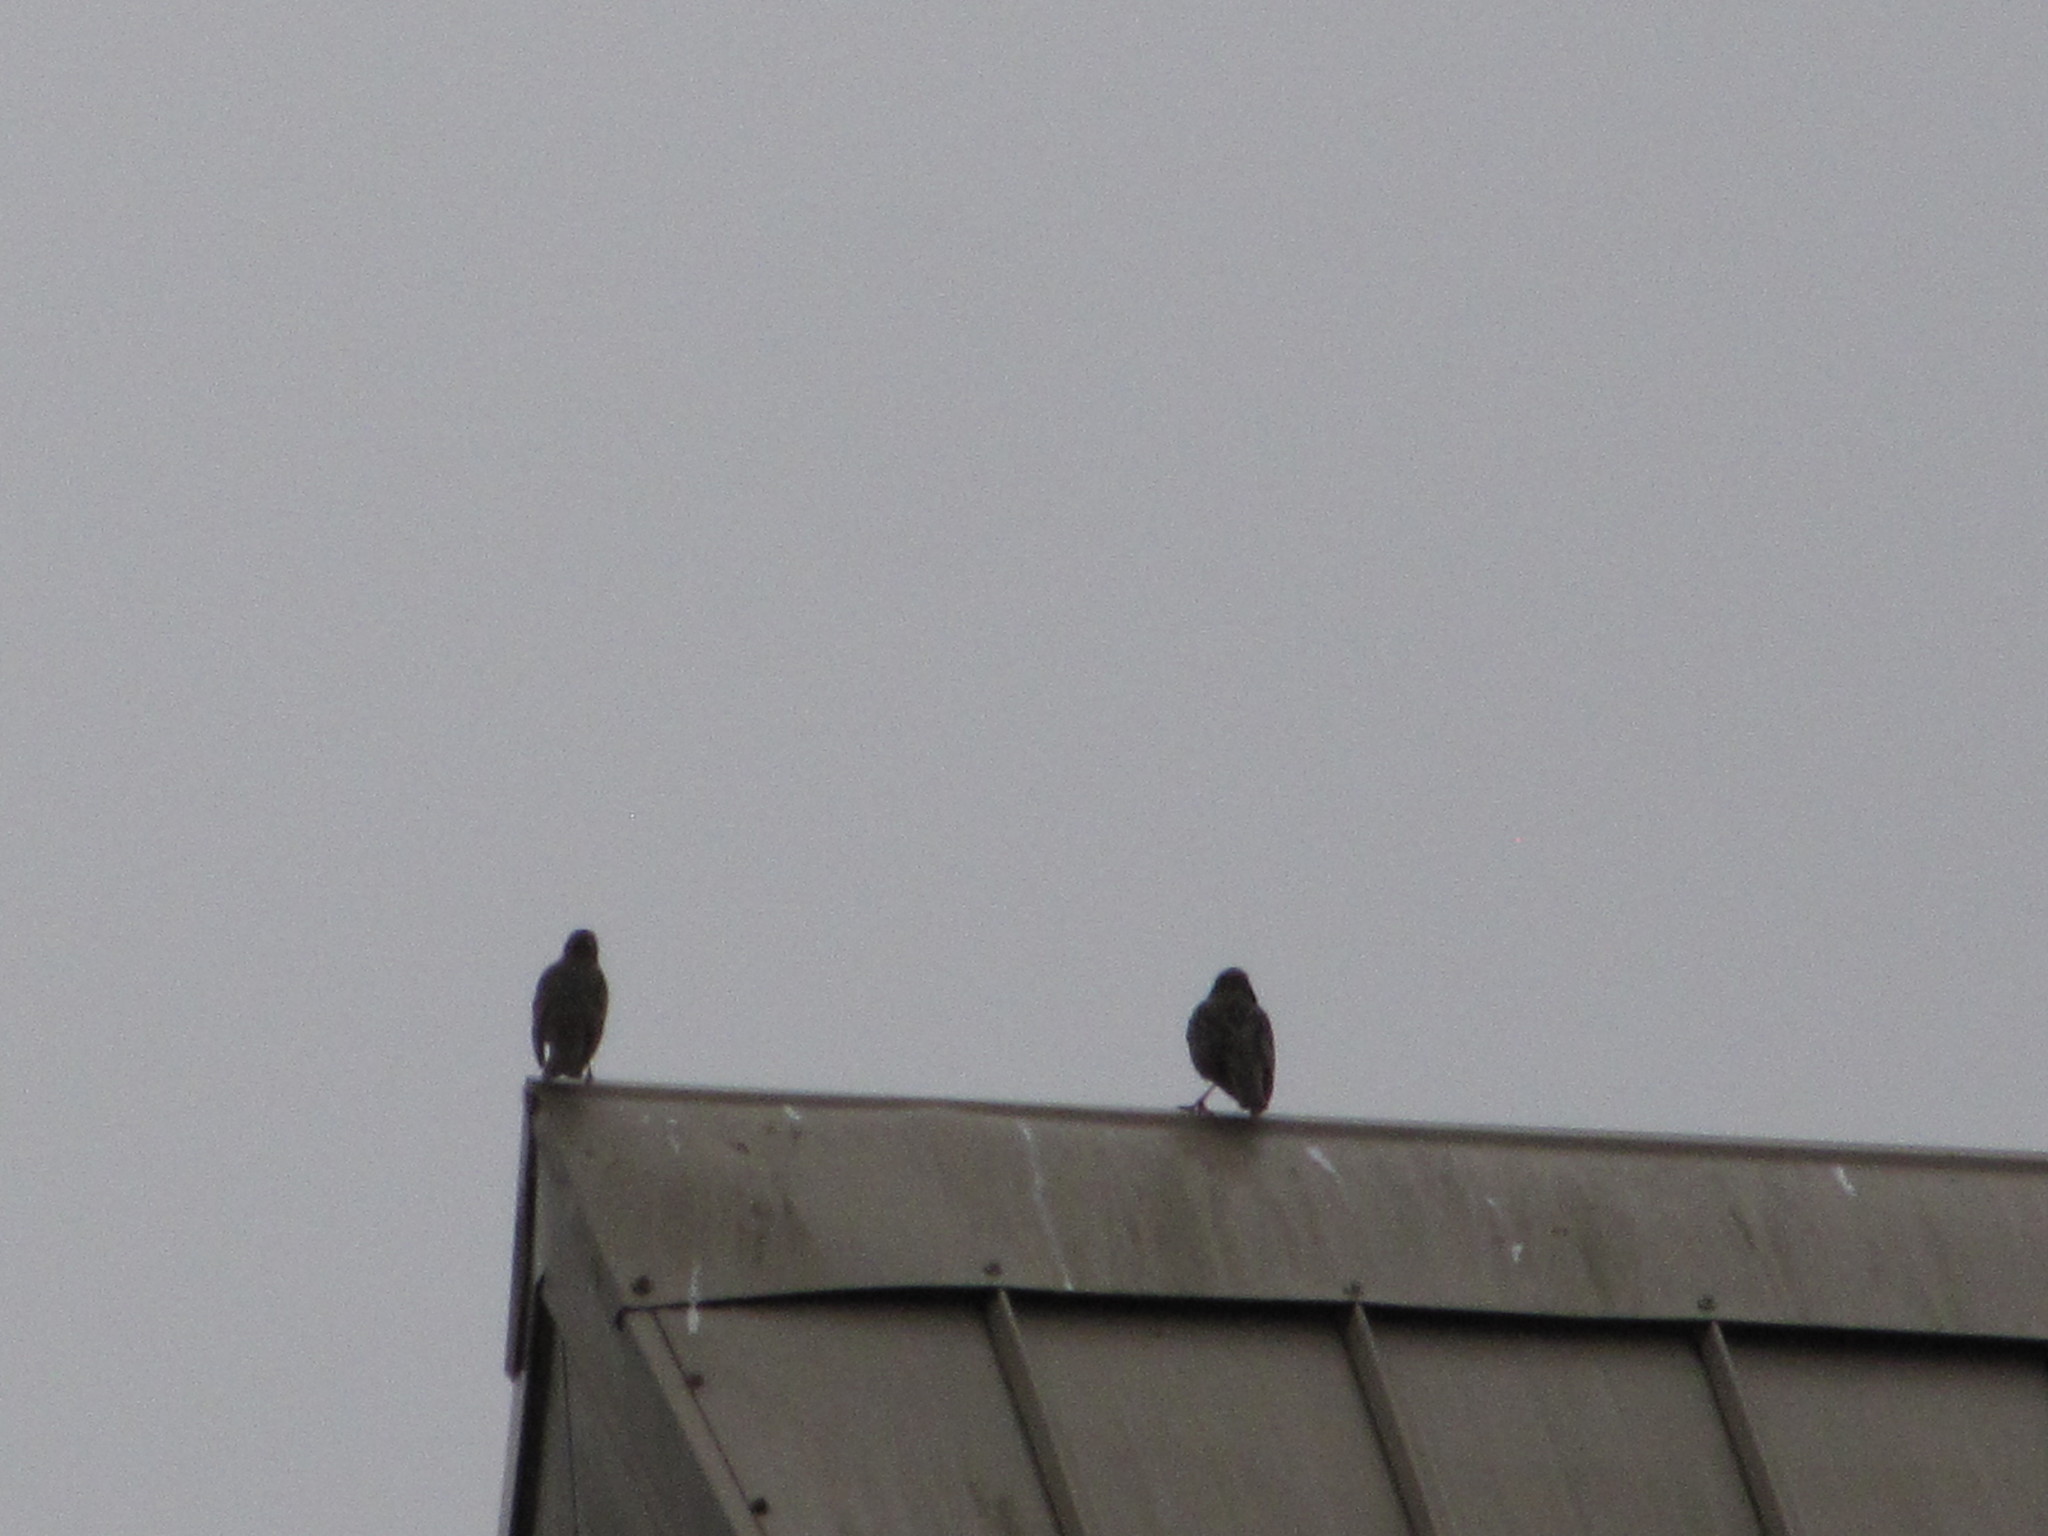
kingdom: Animalia
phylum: Chordata
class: Aves
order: Passeriformes
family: Sturnidae
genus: Sturnus
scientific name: Sturnus vulgaris
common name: Common starling
